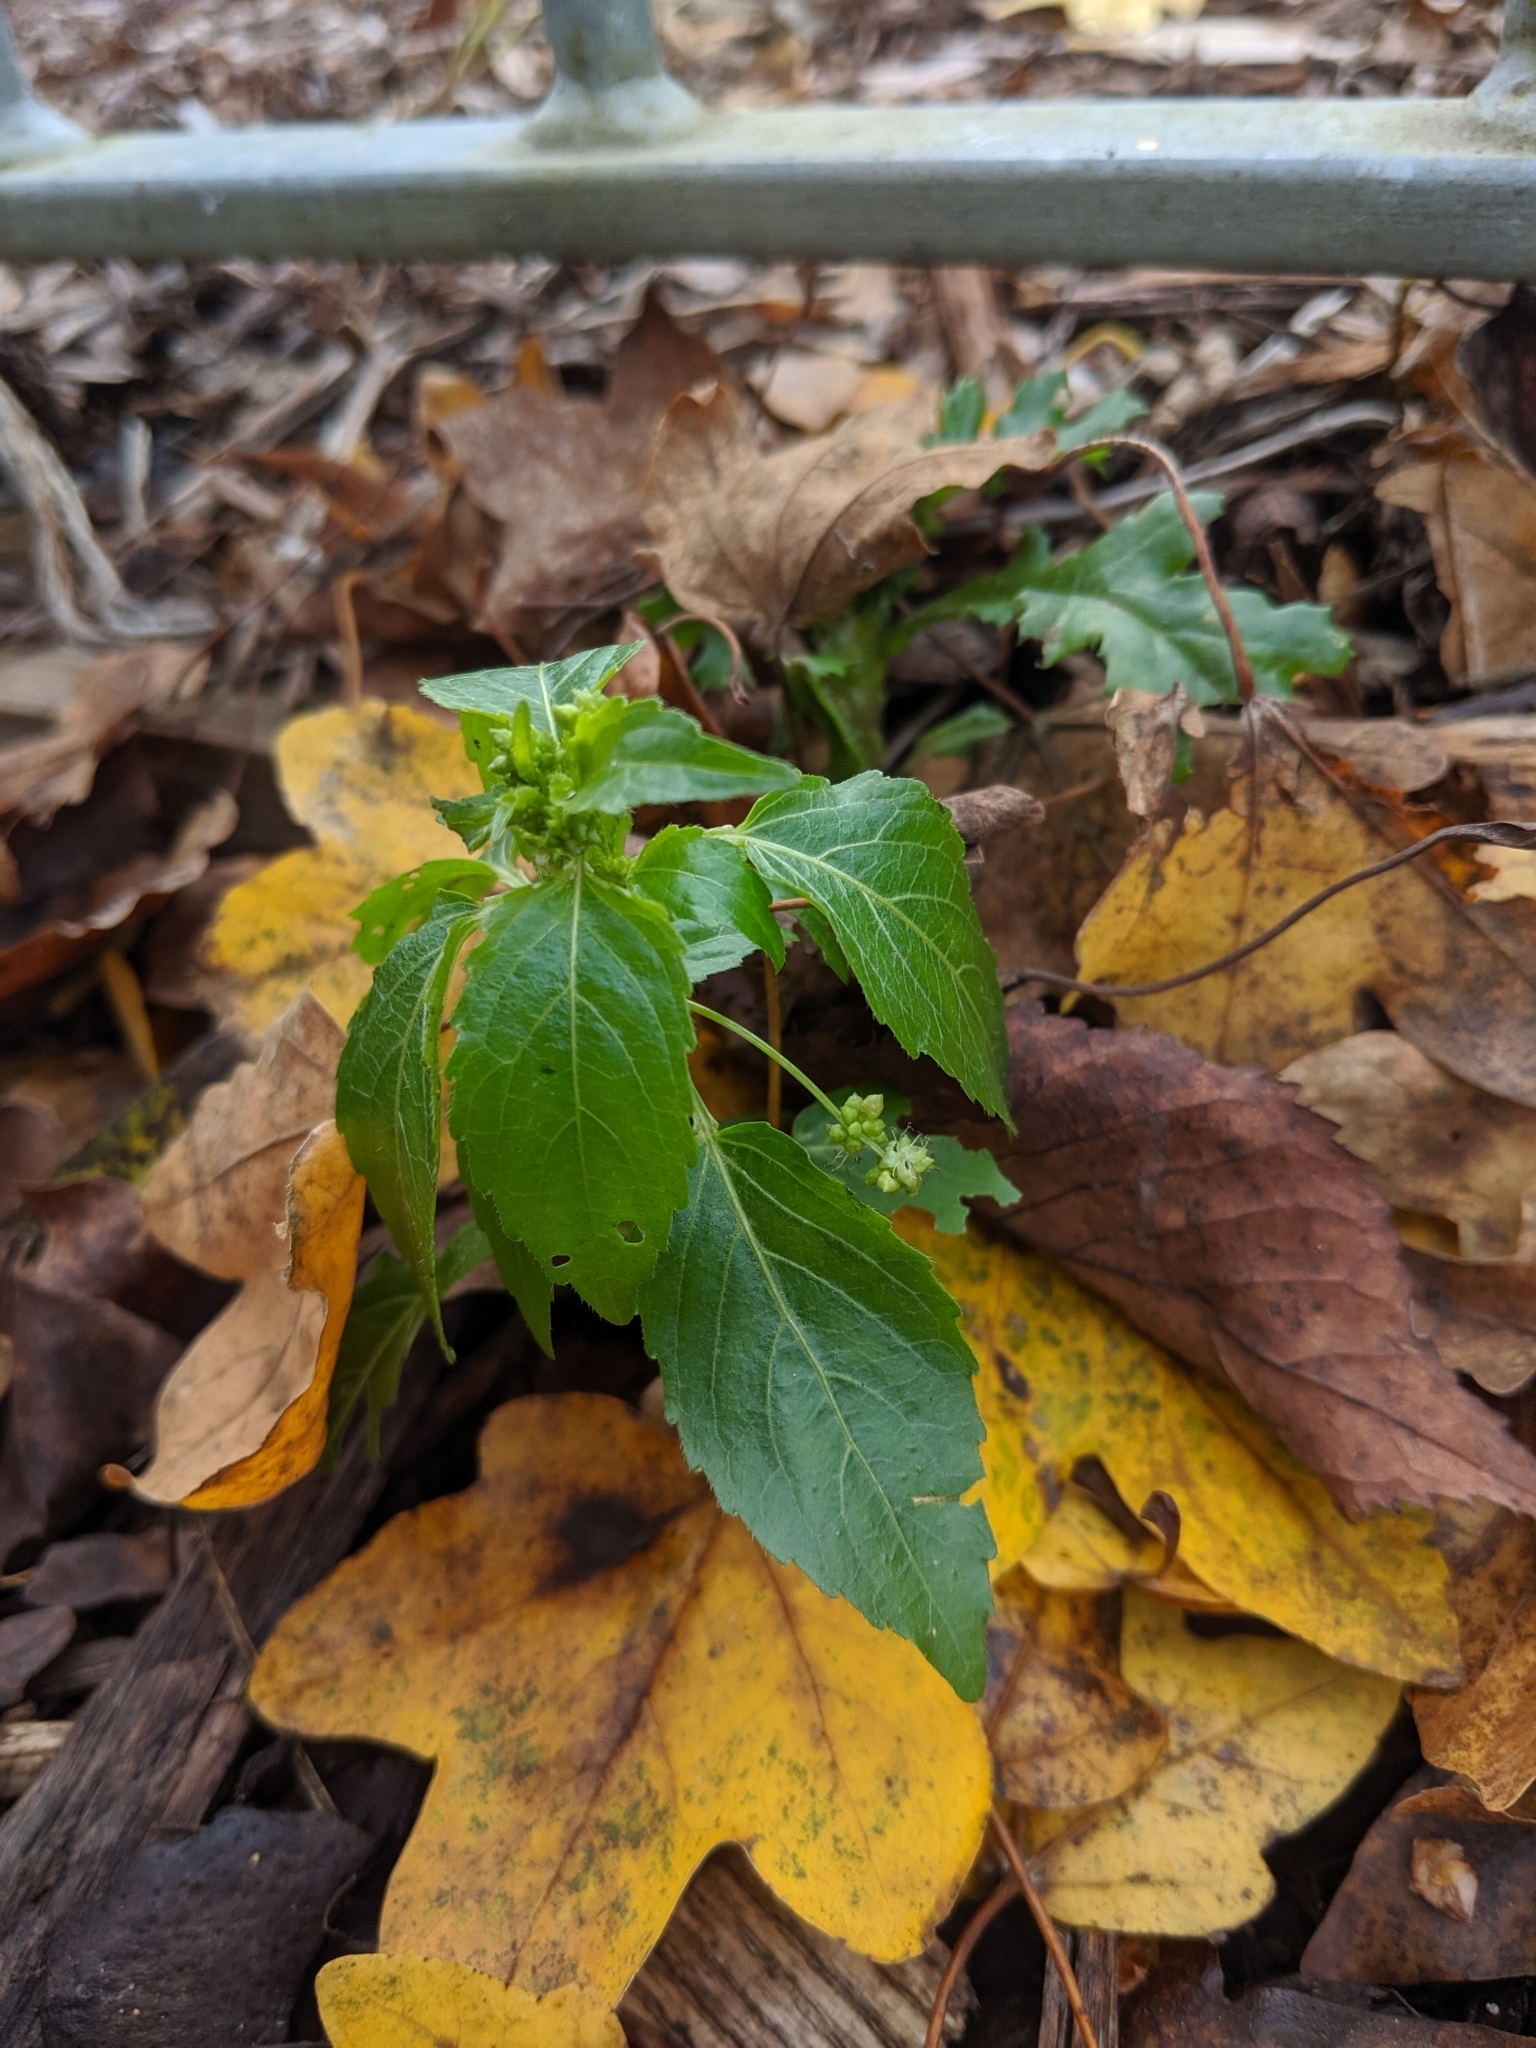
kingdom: Plantae
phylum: Tracheophyta
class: Magnoliopsida
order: Malpighiales
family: Euphorbiaceae
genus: Mercurialis
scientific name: Mercurialis annua
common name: Annual mercury
